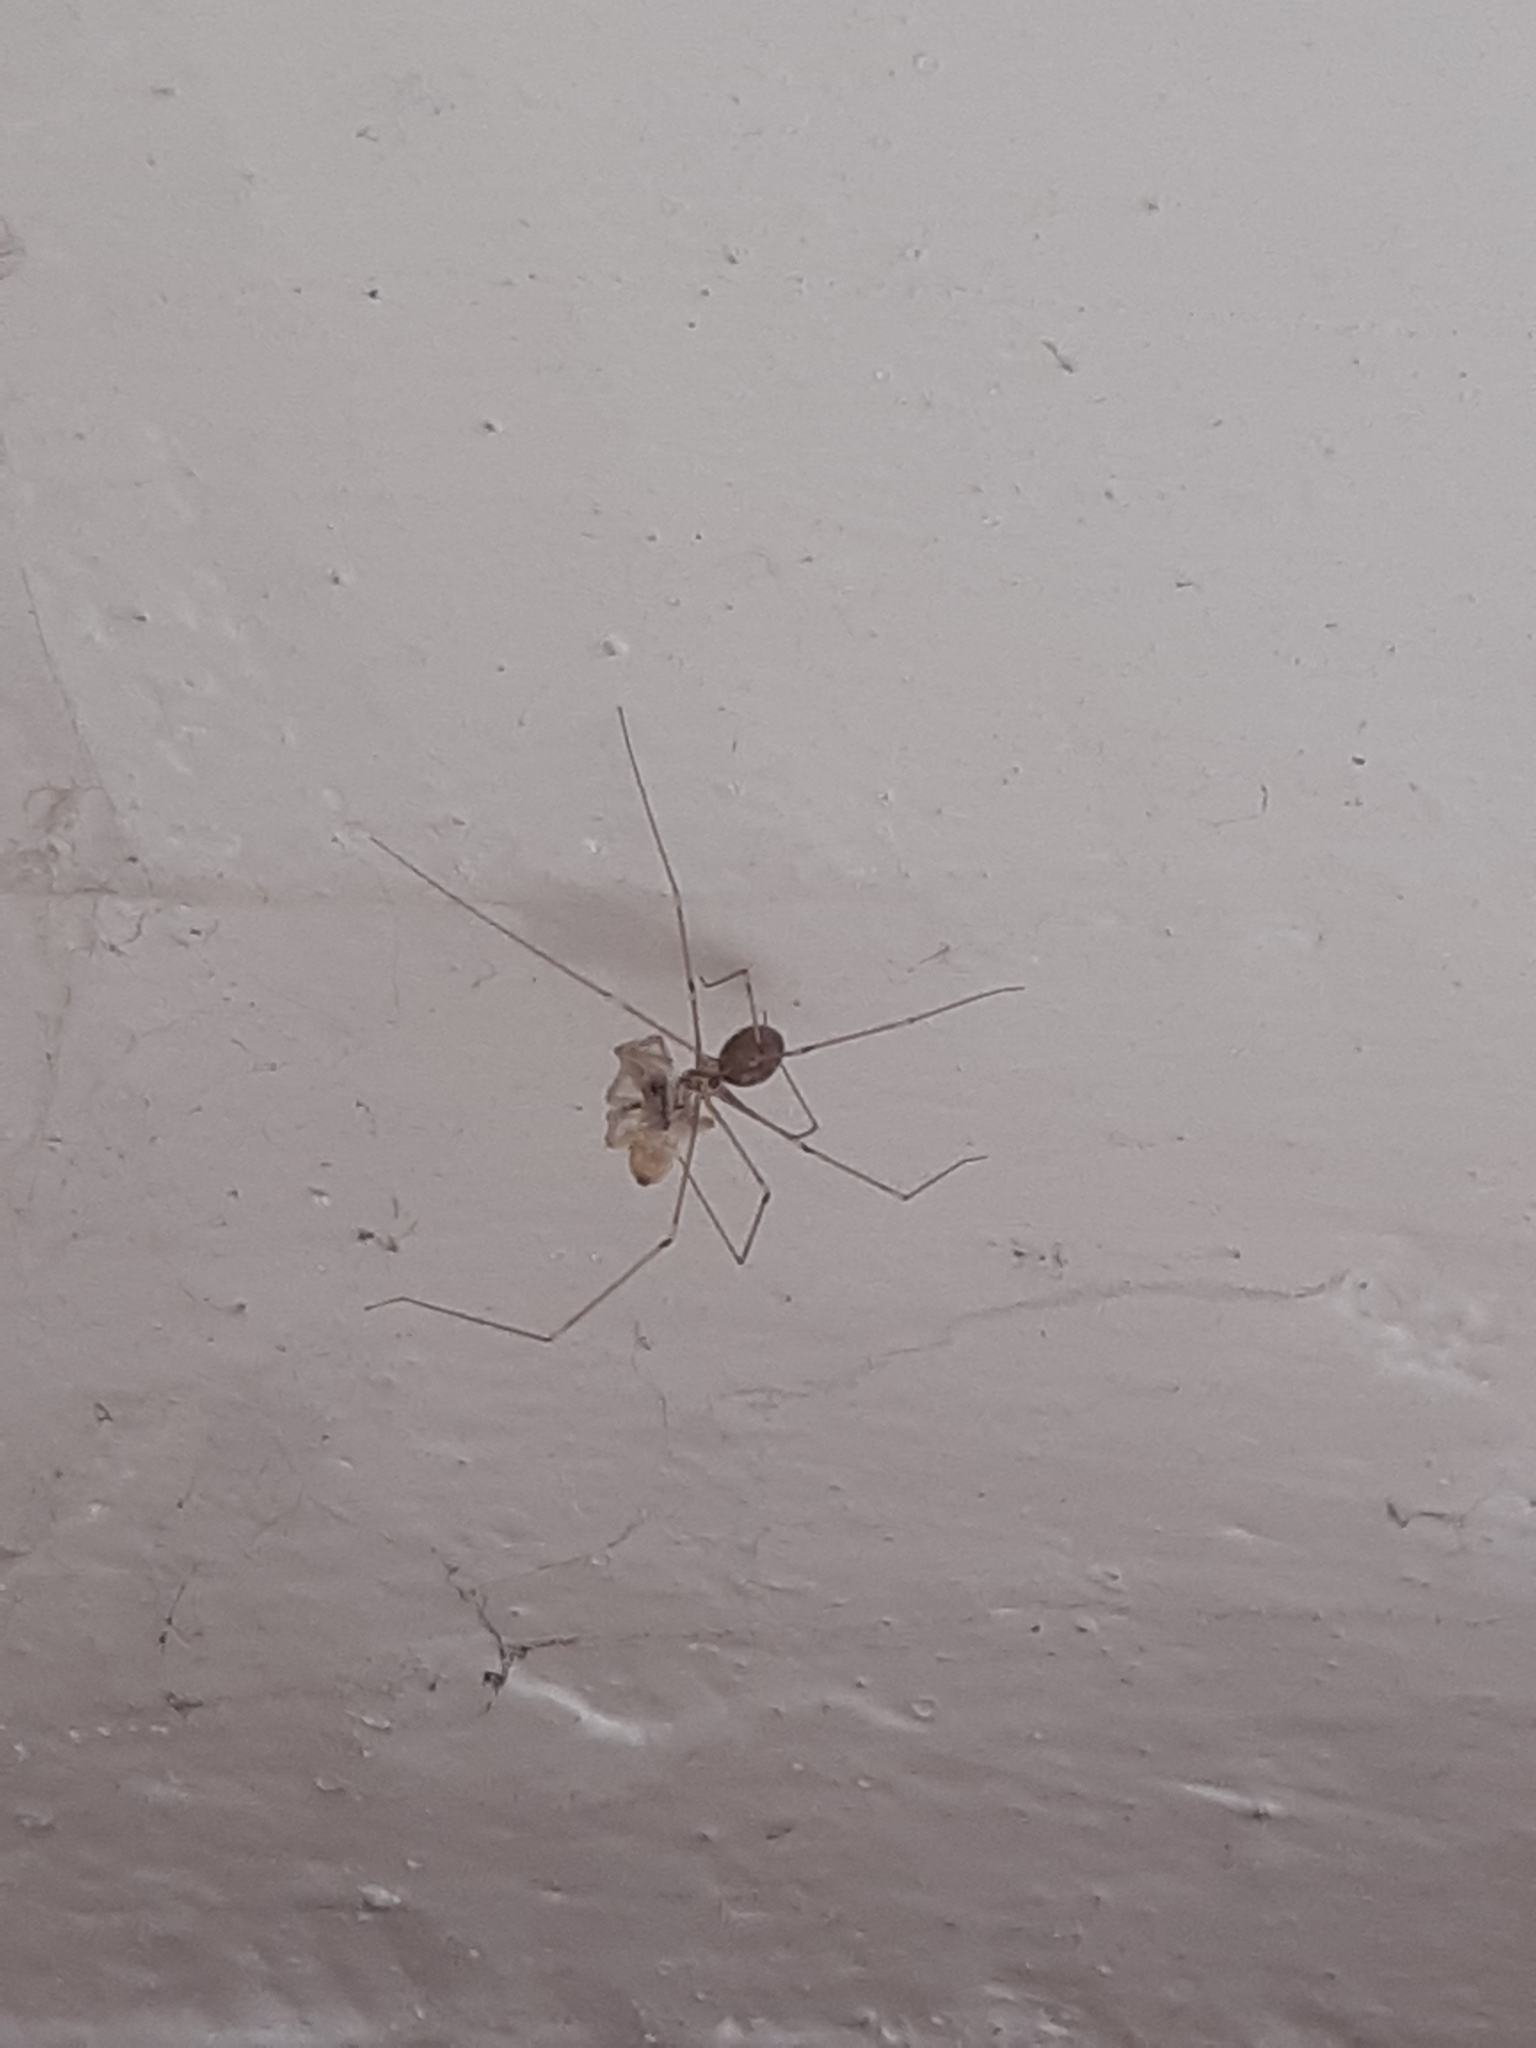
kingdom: Animalia
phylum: Arthropoda
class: Arachnida
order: Araneae
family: Pholcidae
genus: Pholcus
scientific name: Pholcus phalangioides
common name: Longbodied cellar spider
